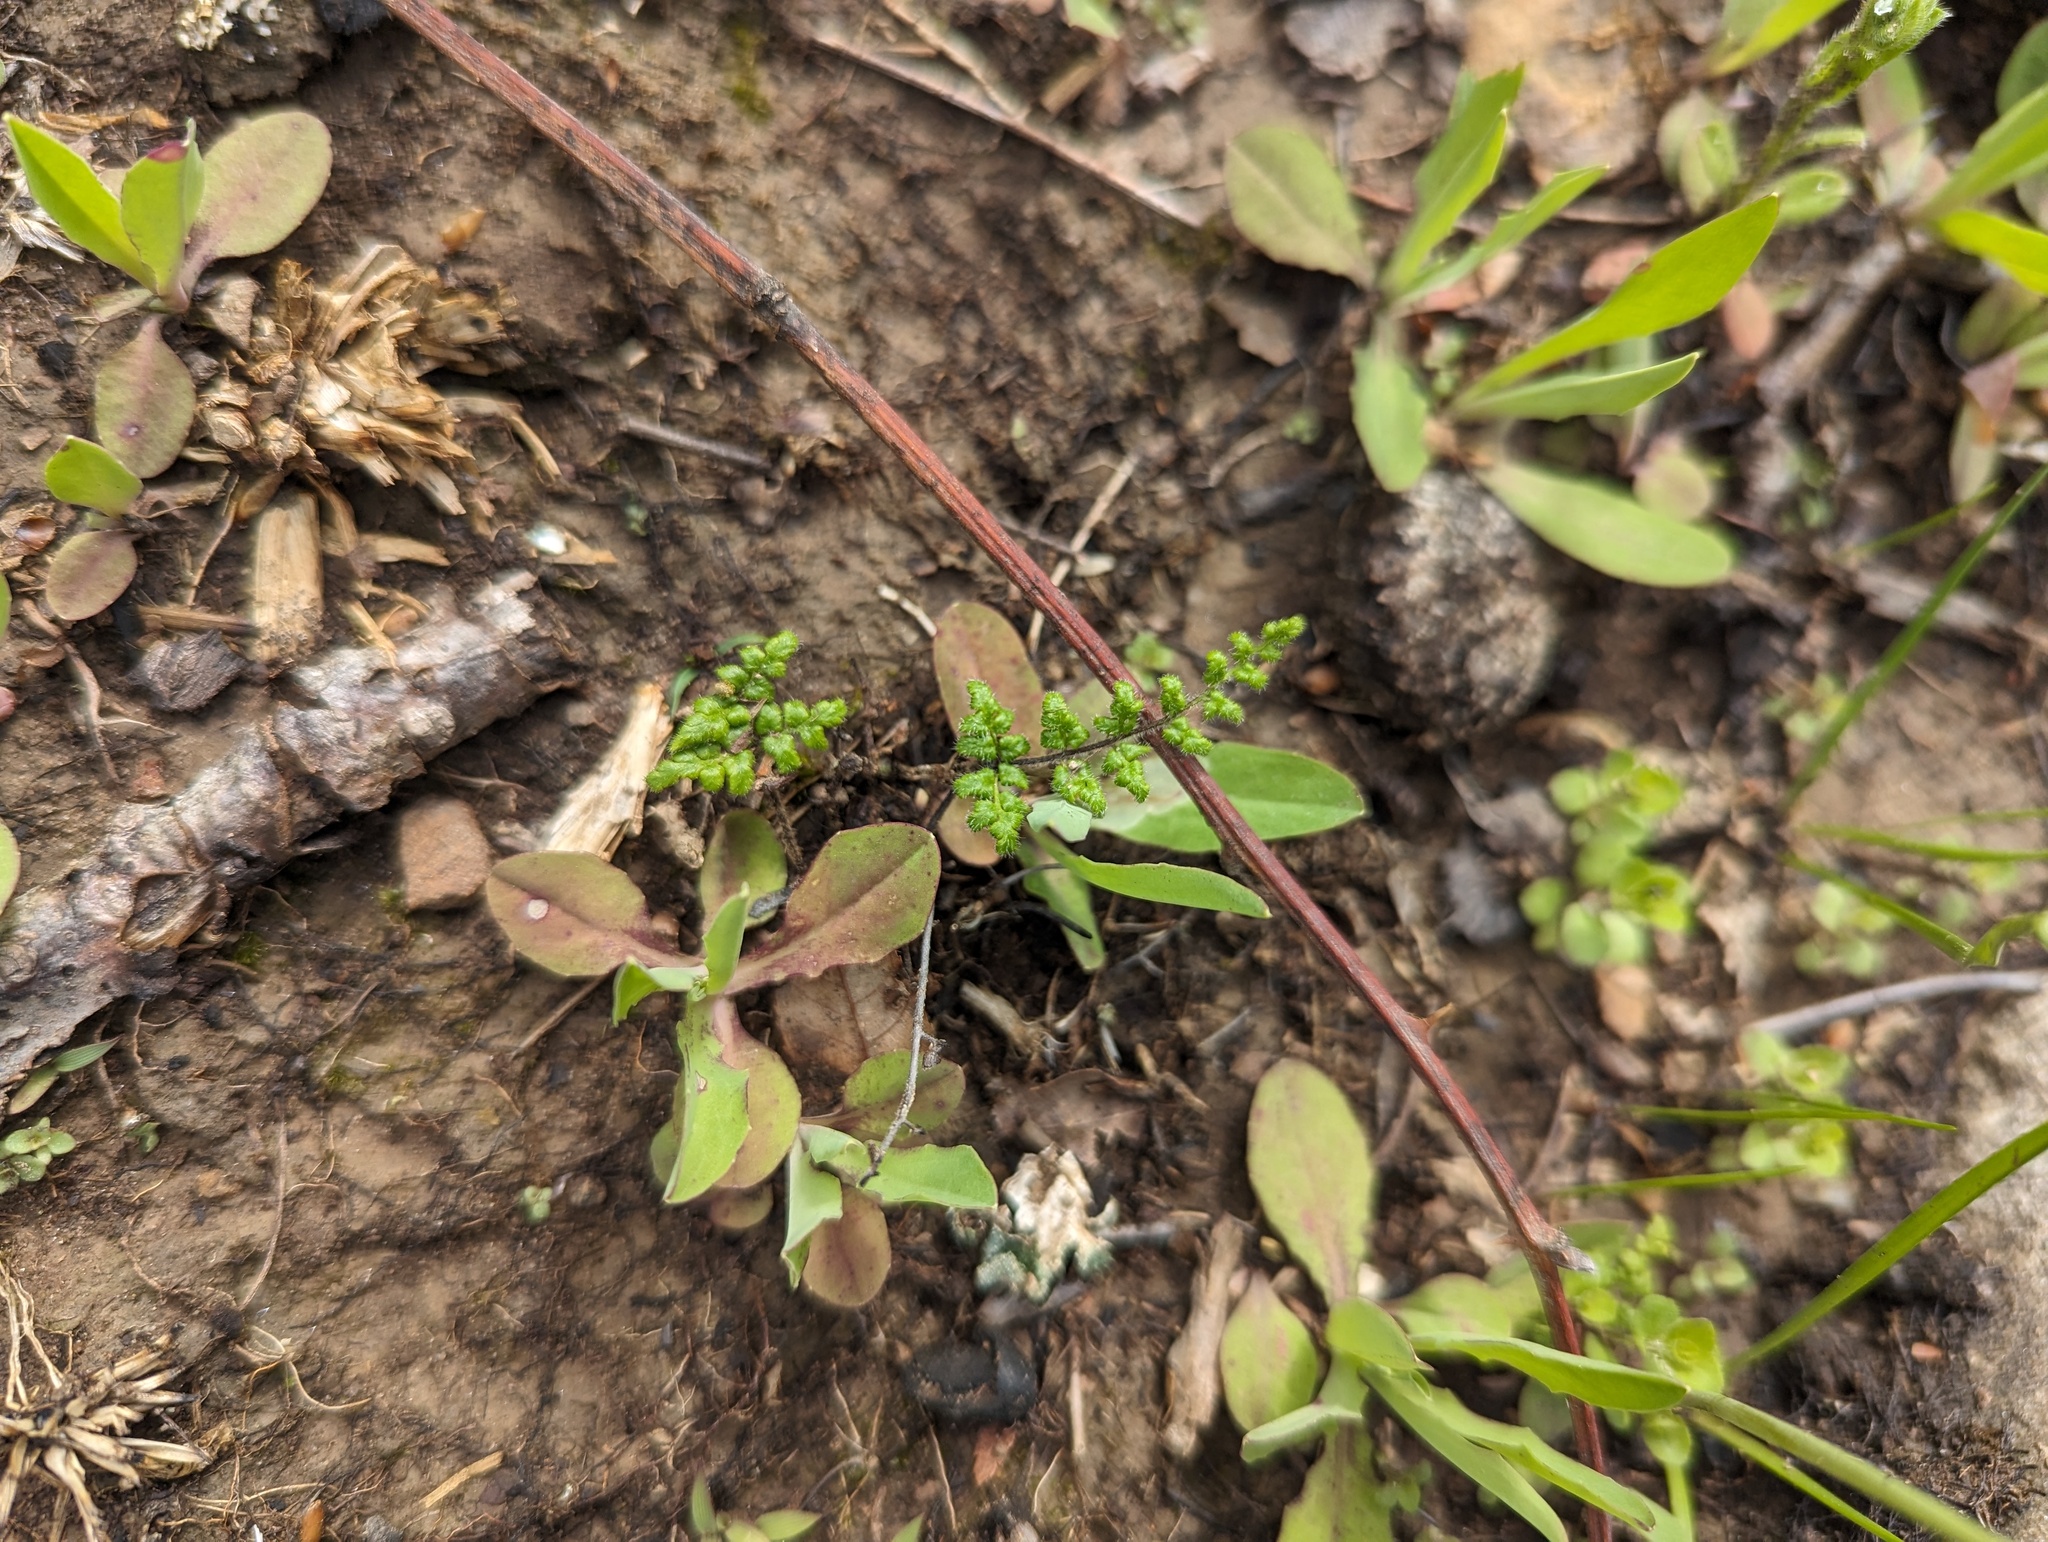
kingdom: Plantae
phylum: Tracheophyta
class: Polypodiopsida
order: Polypodiales
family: Pteridaceae
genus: Myriopteris
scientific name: Myriopteris lanosa
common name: Hairy lip fern
